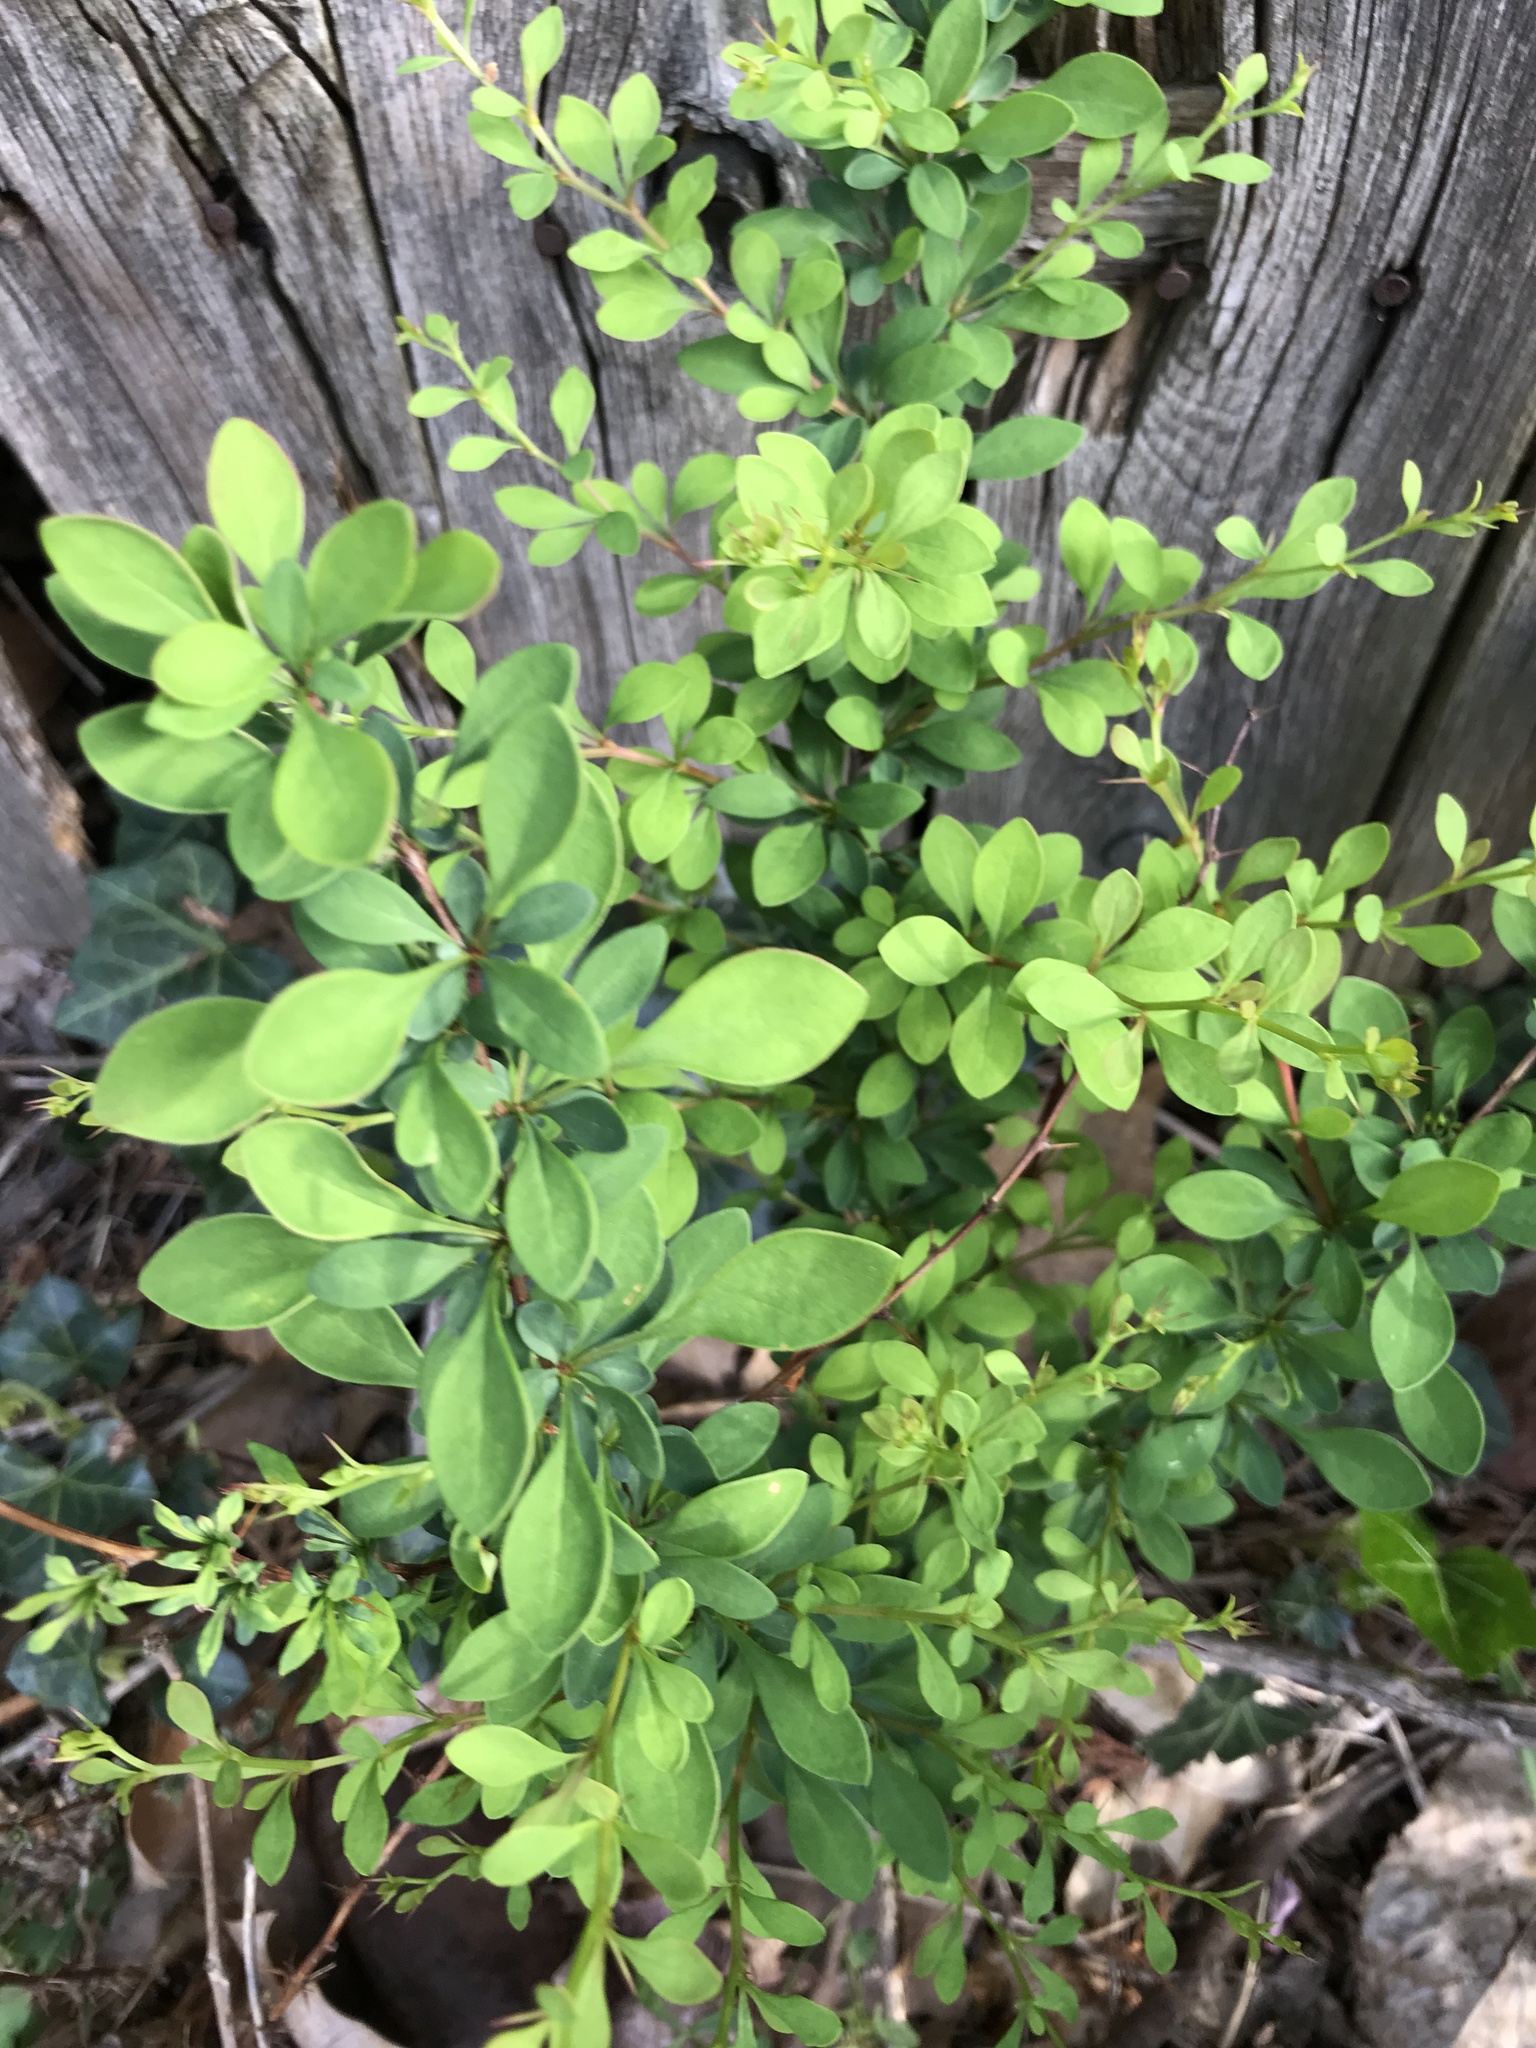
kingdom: Plantae
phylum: Tracheophyta
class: Magnoliopsida
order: Ranunculales
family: Berberidaceae
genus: Berberis
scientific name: Berberis thunbergii
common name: Japanese barberry
